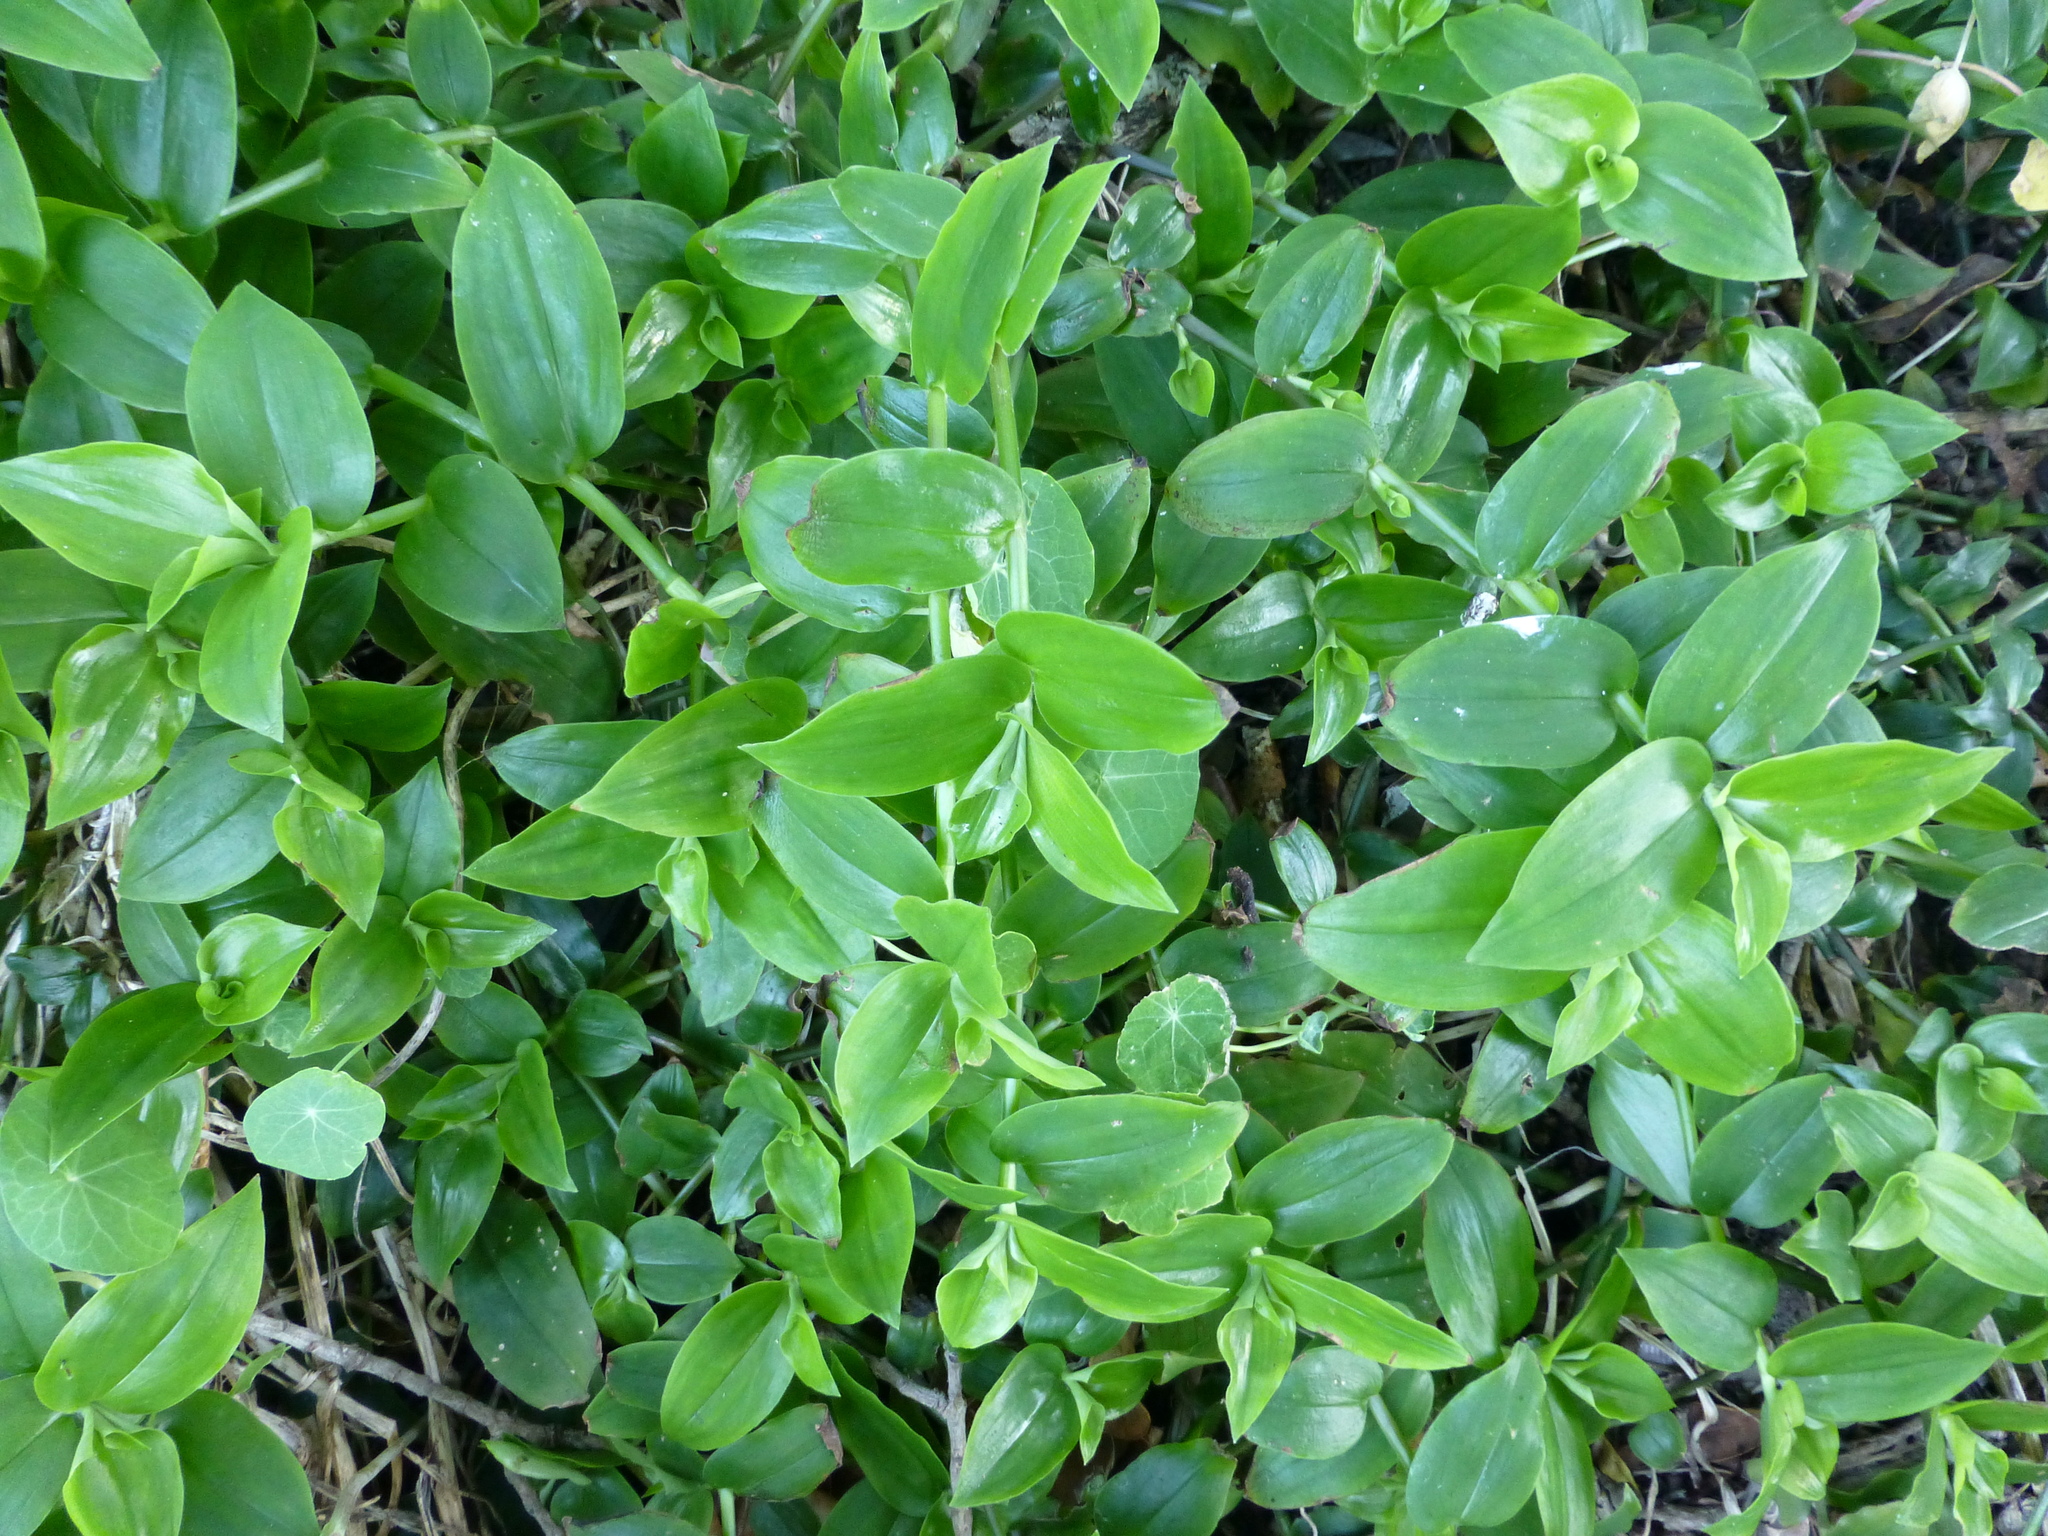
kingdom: Plantae
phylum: Tracheophyta
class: Liliopsida
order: Commelinales
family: Commelinaceae
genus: Tradescantia
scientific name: Tradescantia fluminensis
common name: Wandering-jew
